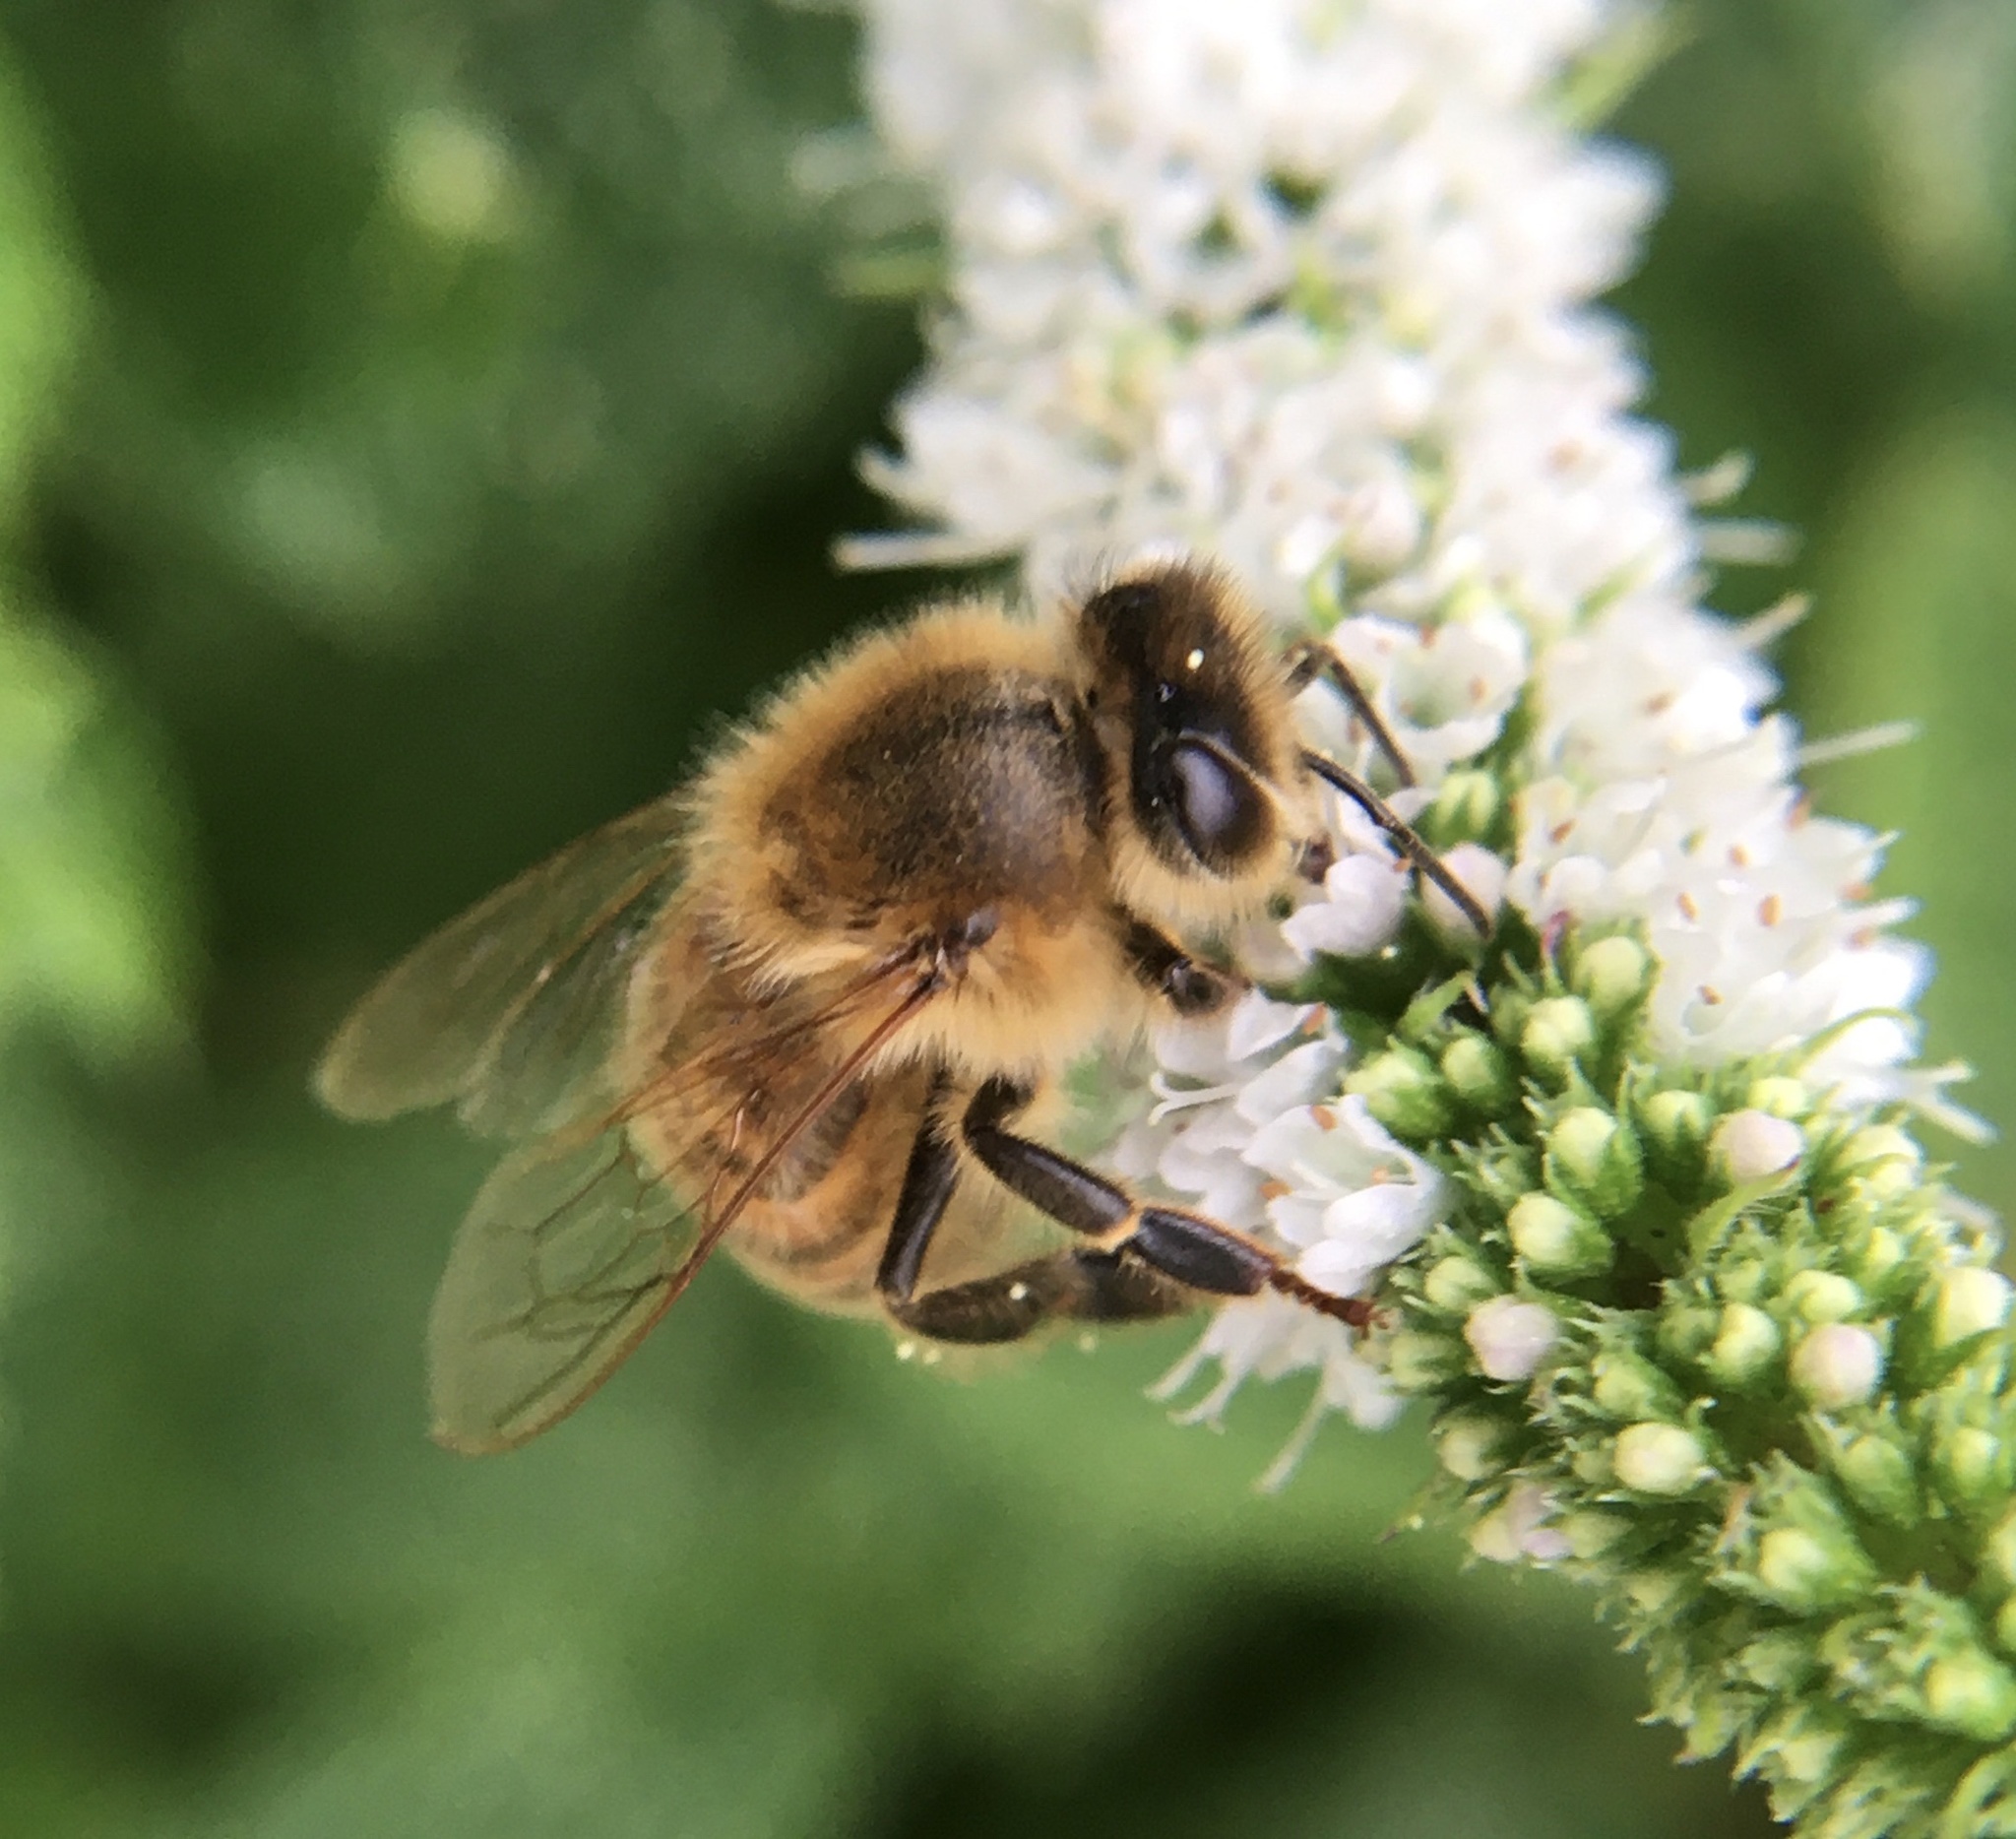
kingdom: Animalia
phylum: Arthropoda
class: Insecta
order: Hymenoptera
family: Apidae
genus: Apis
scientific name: Apis mellifera
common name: Honey bee
